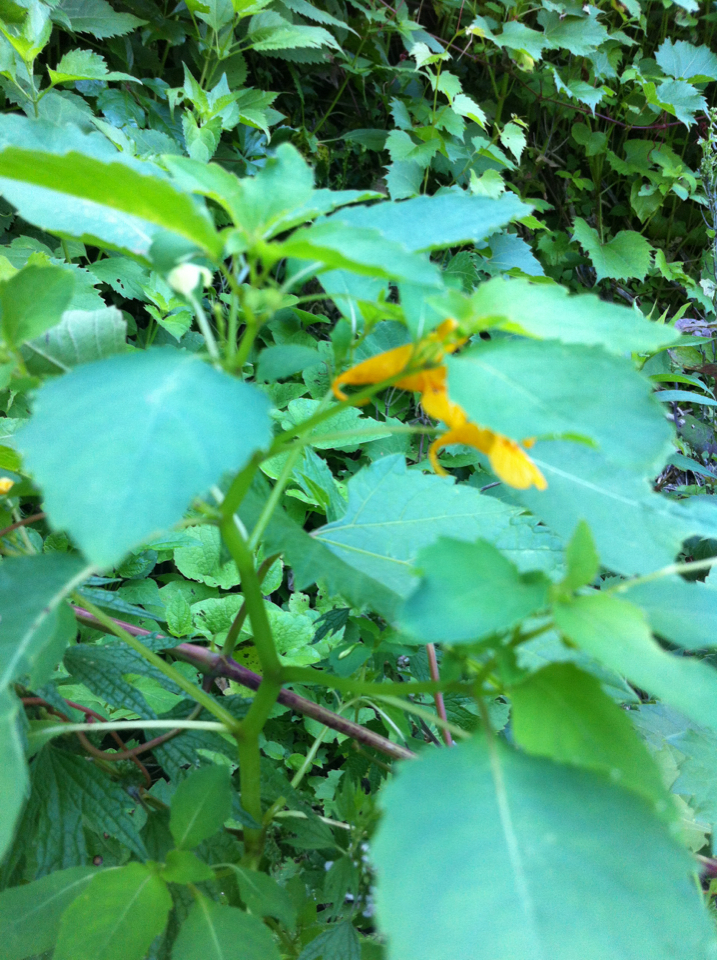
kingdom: Plantae
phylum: Tracheophyta
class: Magnoliopsida
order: Ericales
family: Balsaminaceae
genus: Impatiens
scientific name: Impatiens capensis
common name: Orange balsam
